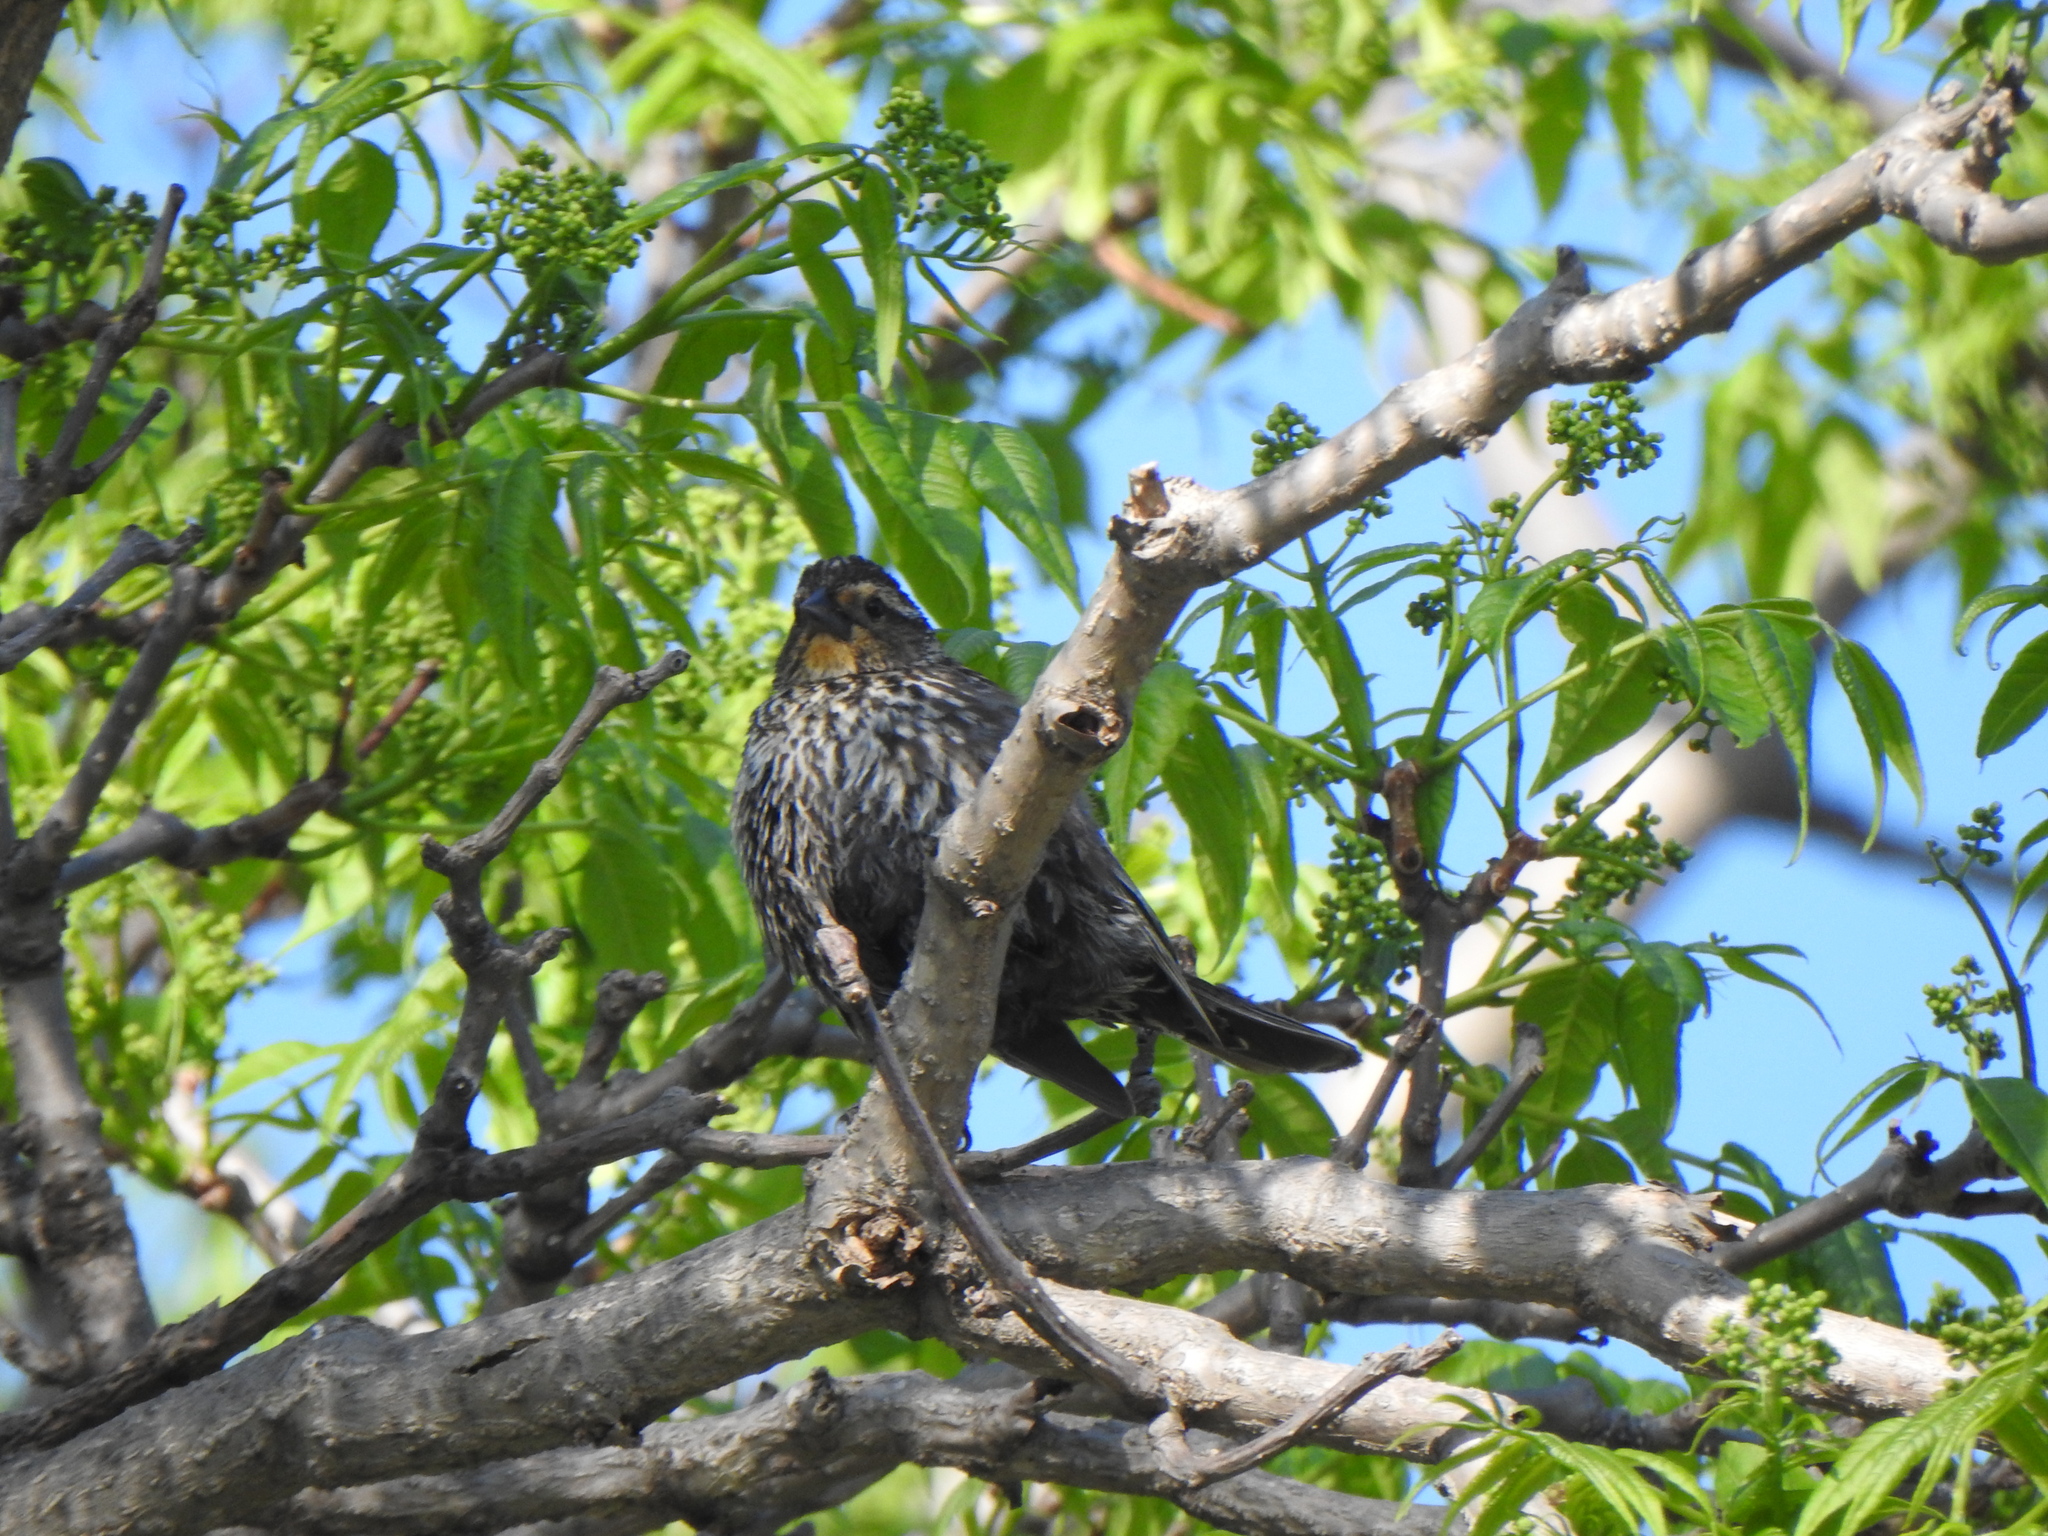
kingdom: Animalia
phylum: Chordata
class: Aves
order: Passeriformes
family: Icteridae
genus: Agelaius
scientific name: Agelaius phoeniceus
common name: Red-winged blackbird
